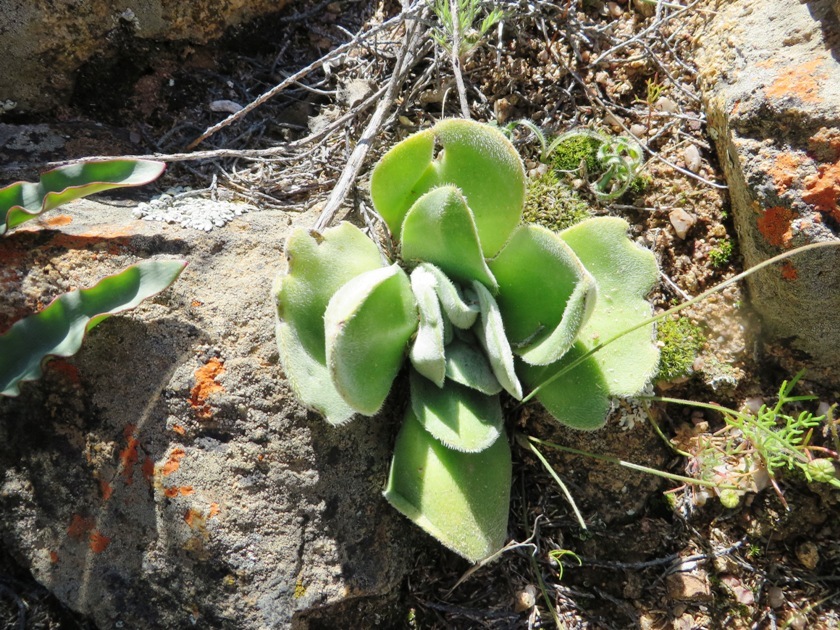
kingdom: Plantae
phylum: Tracheophyta
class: Magnoliopsida
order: Saxifragales
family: Crassulaceae
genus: Crassula
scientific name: Crassula tomentosa
